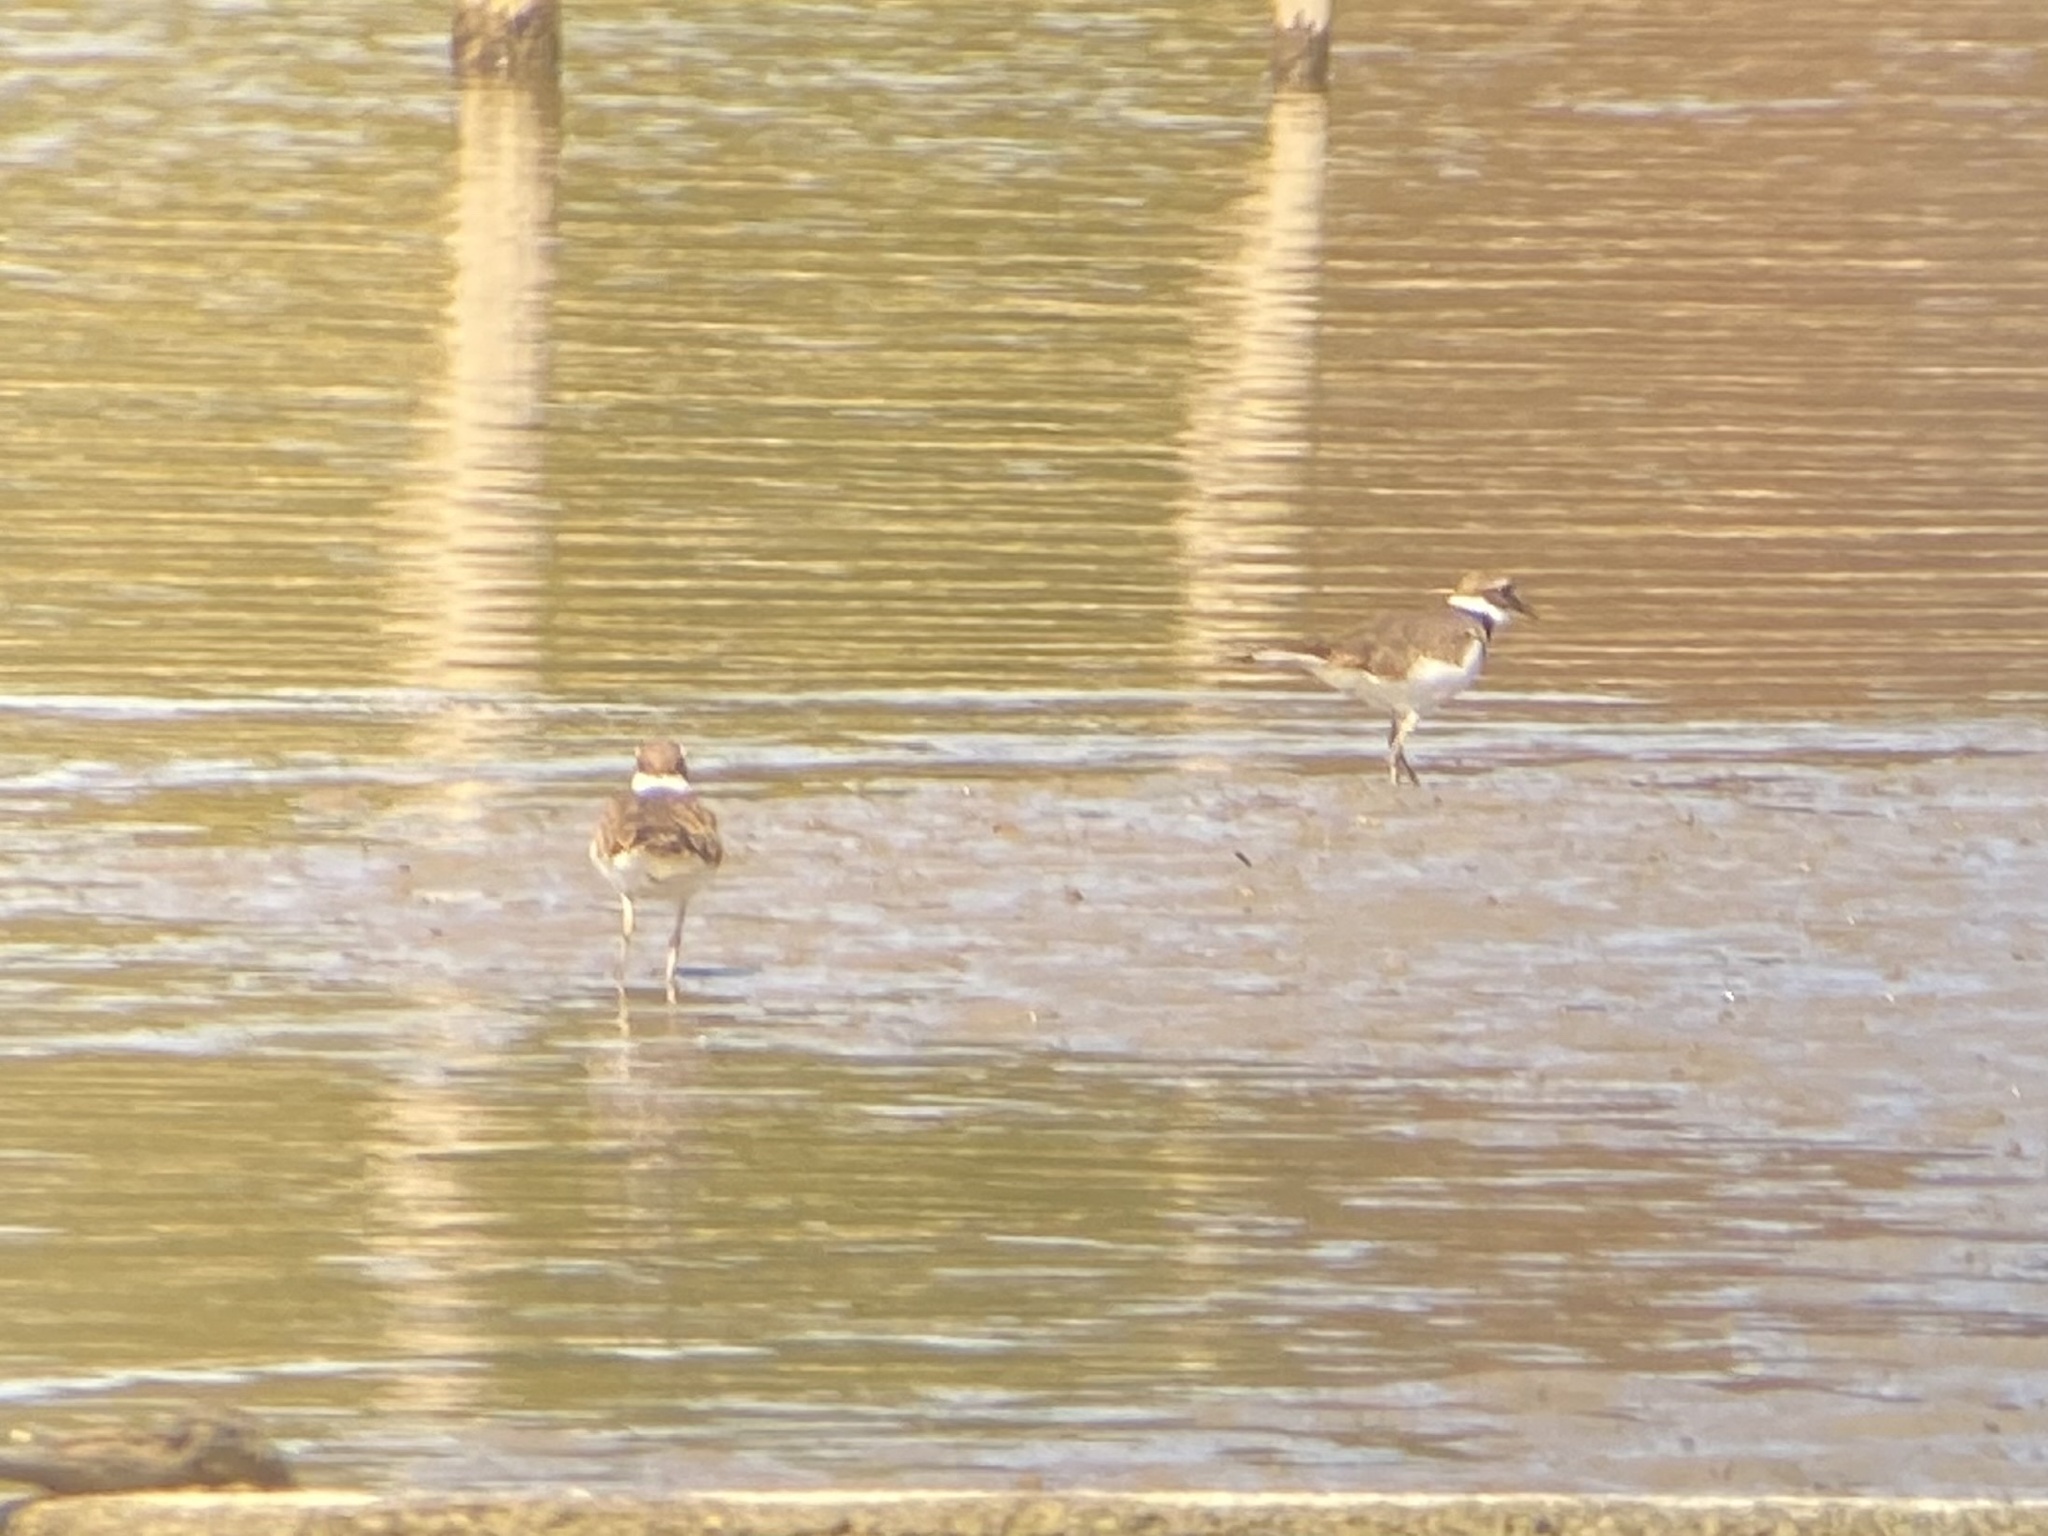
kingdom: Animalia
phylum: Chordata
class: Aves
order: Charadriiformes
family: Charadriidae
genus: Charadrius
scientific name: Charadrius vociferus
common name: Killdeer
